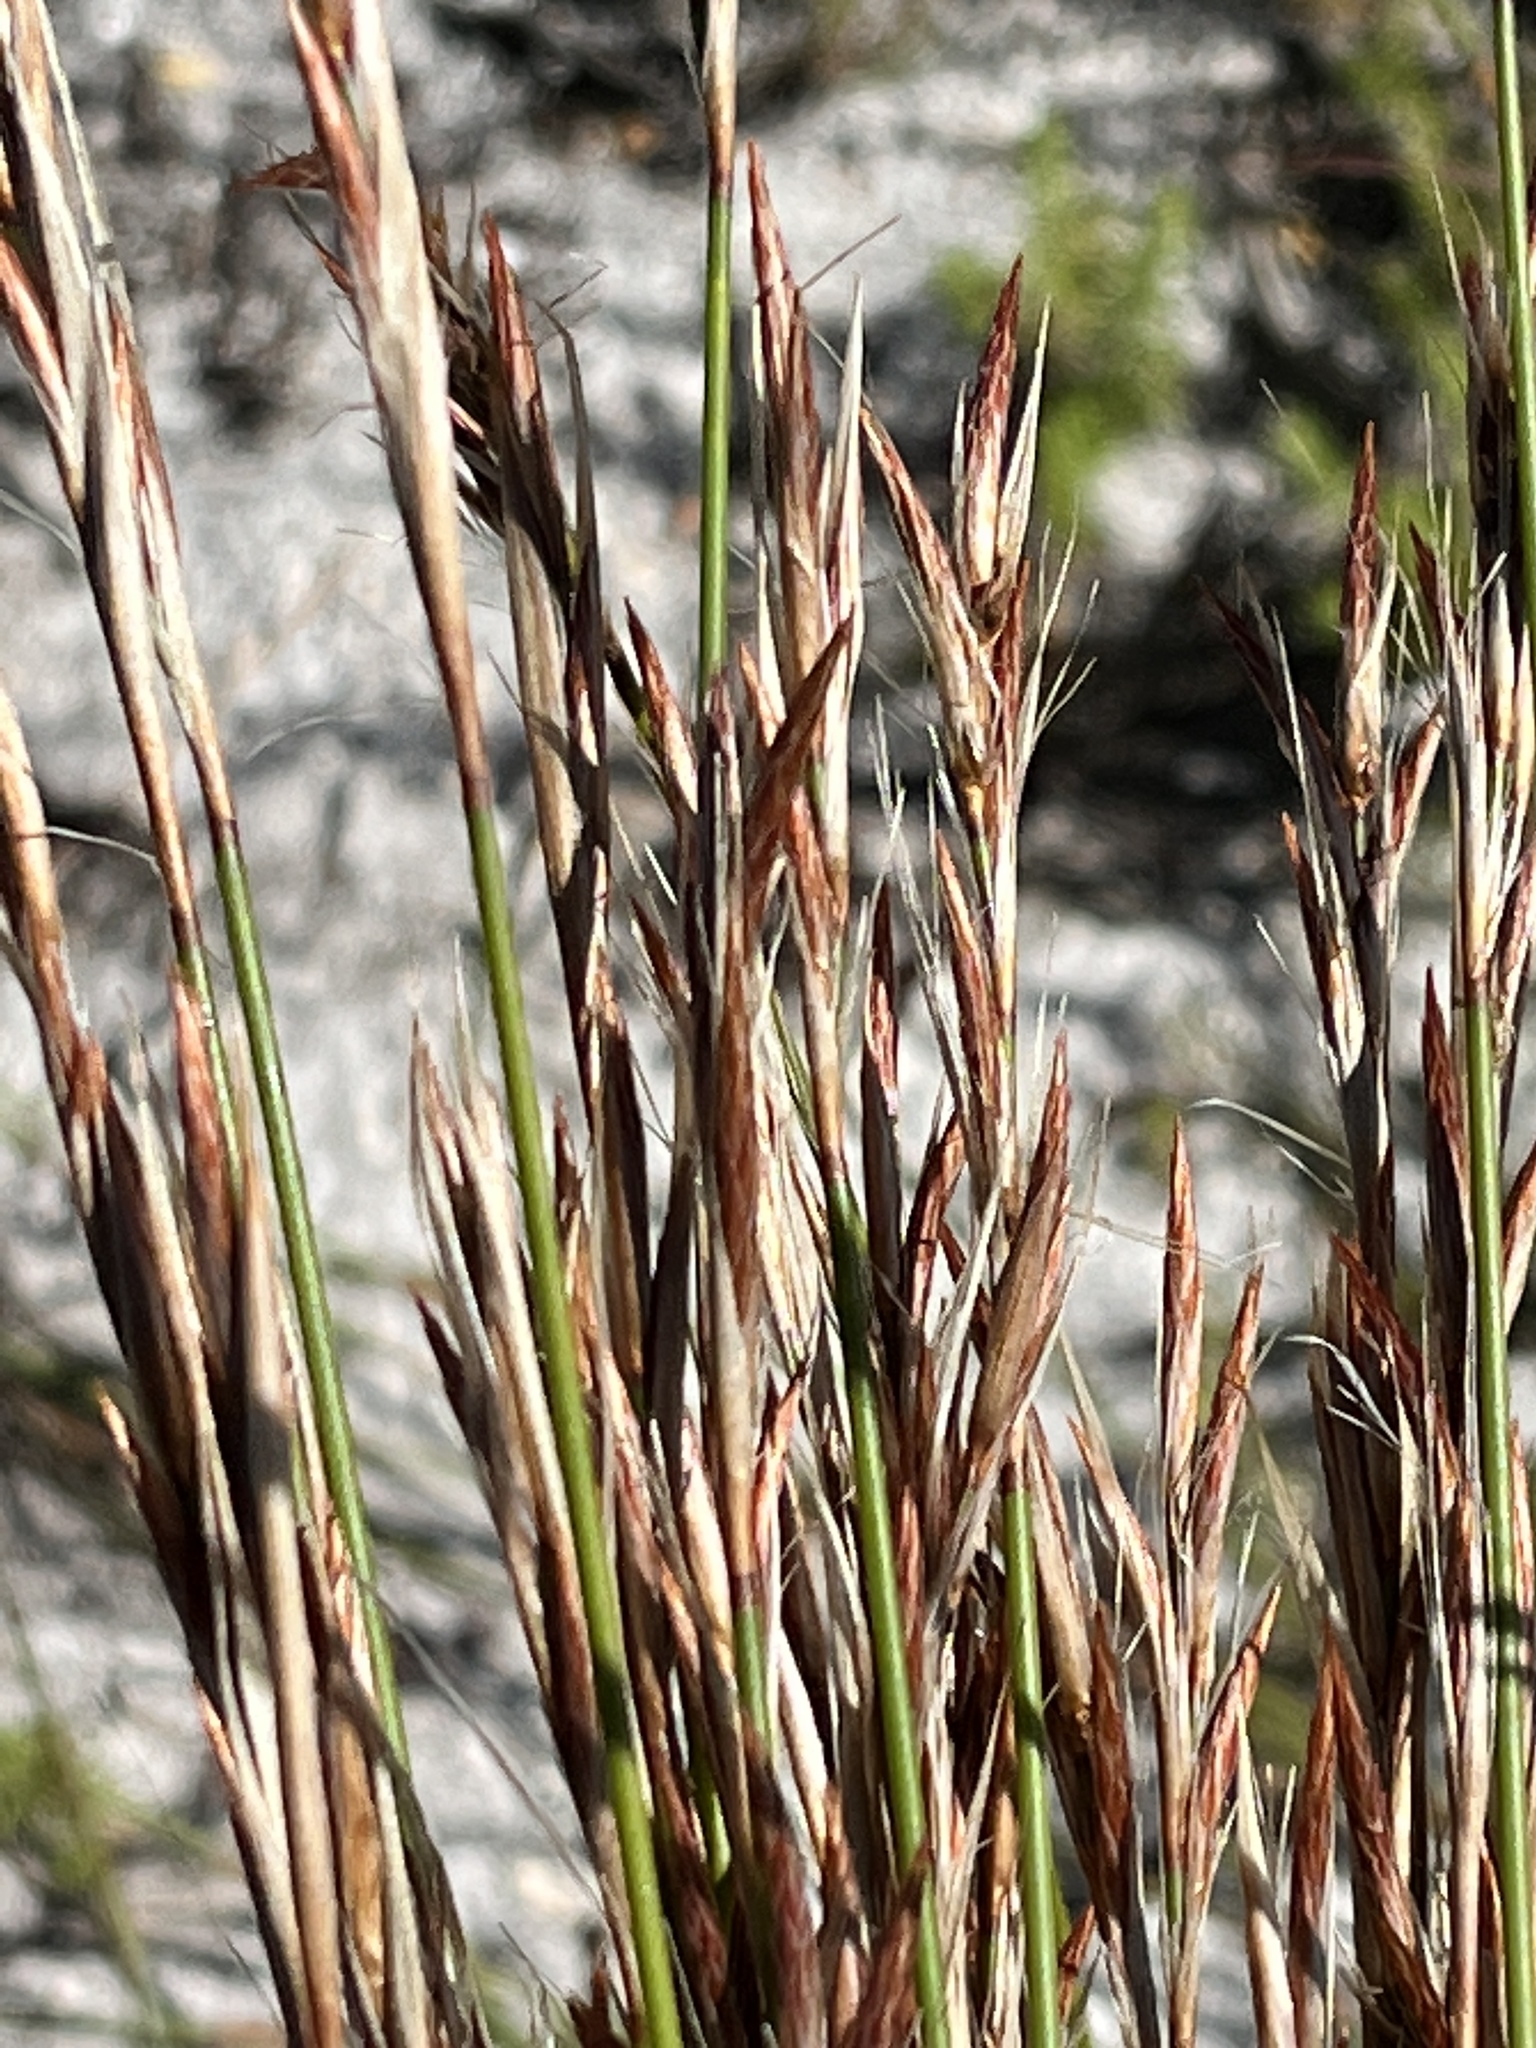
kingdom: Plantae
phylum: Tracheophyta
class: Liliopsida
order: Poales
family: Restionaceae
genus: Thamnochortus
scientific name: Thamnochortus lucens
